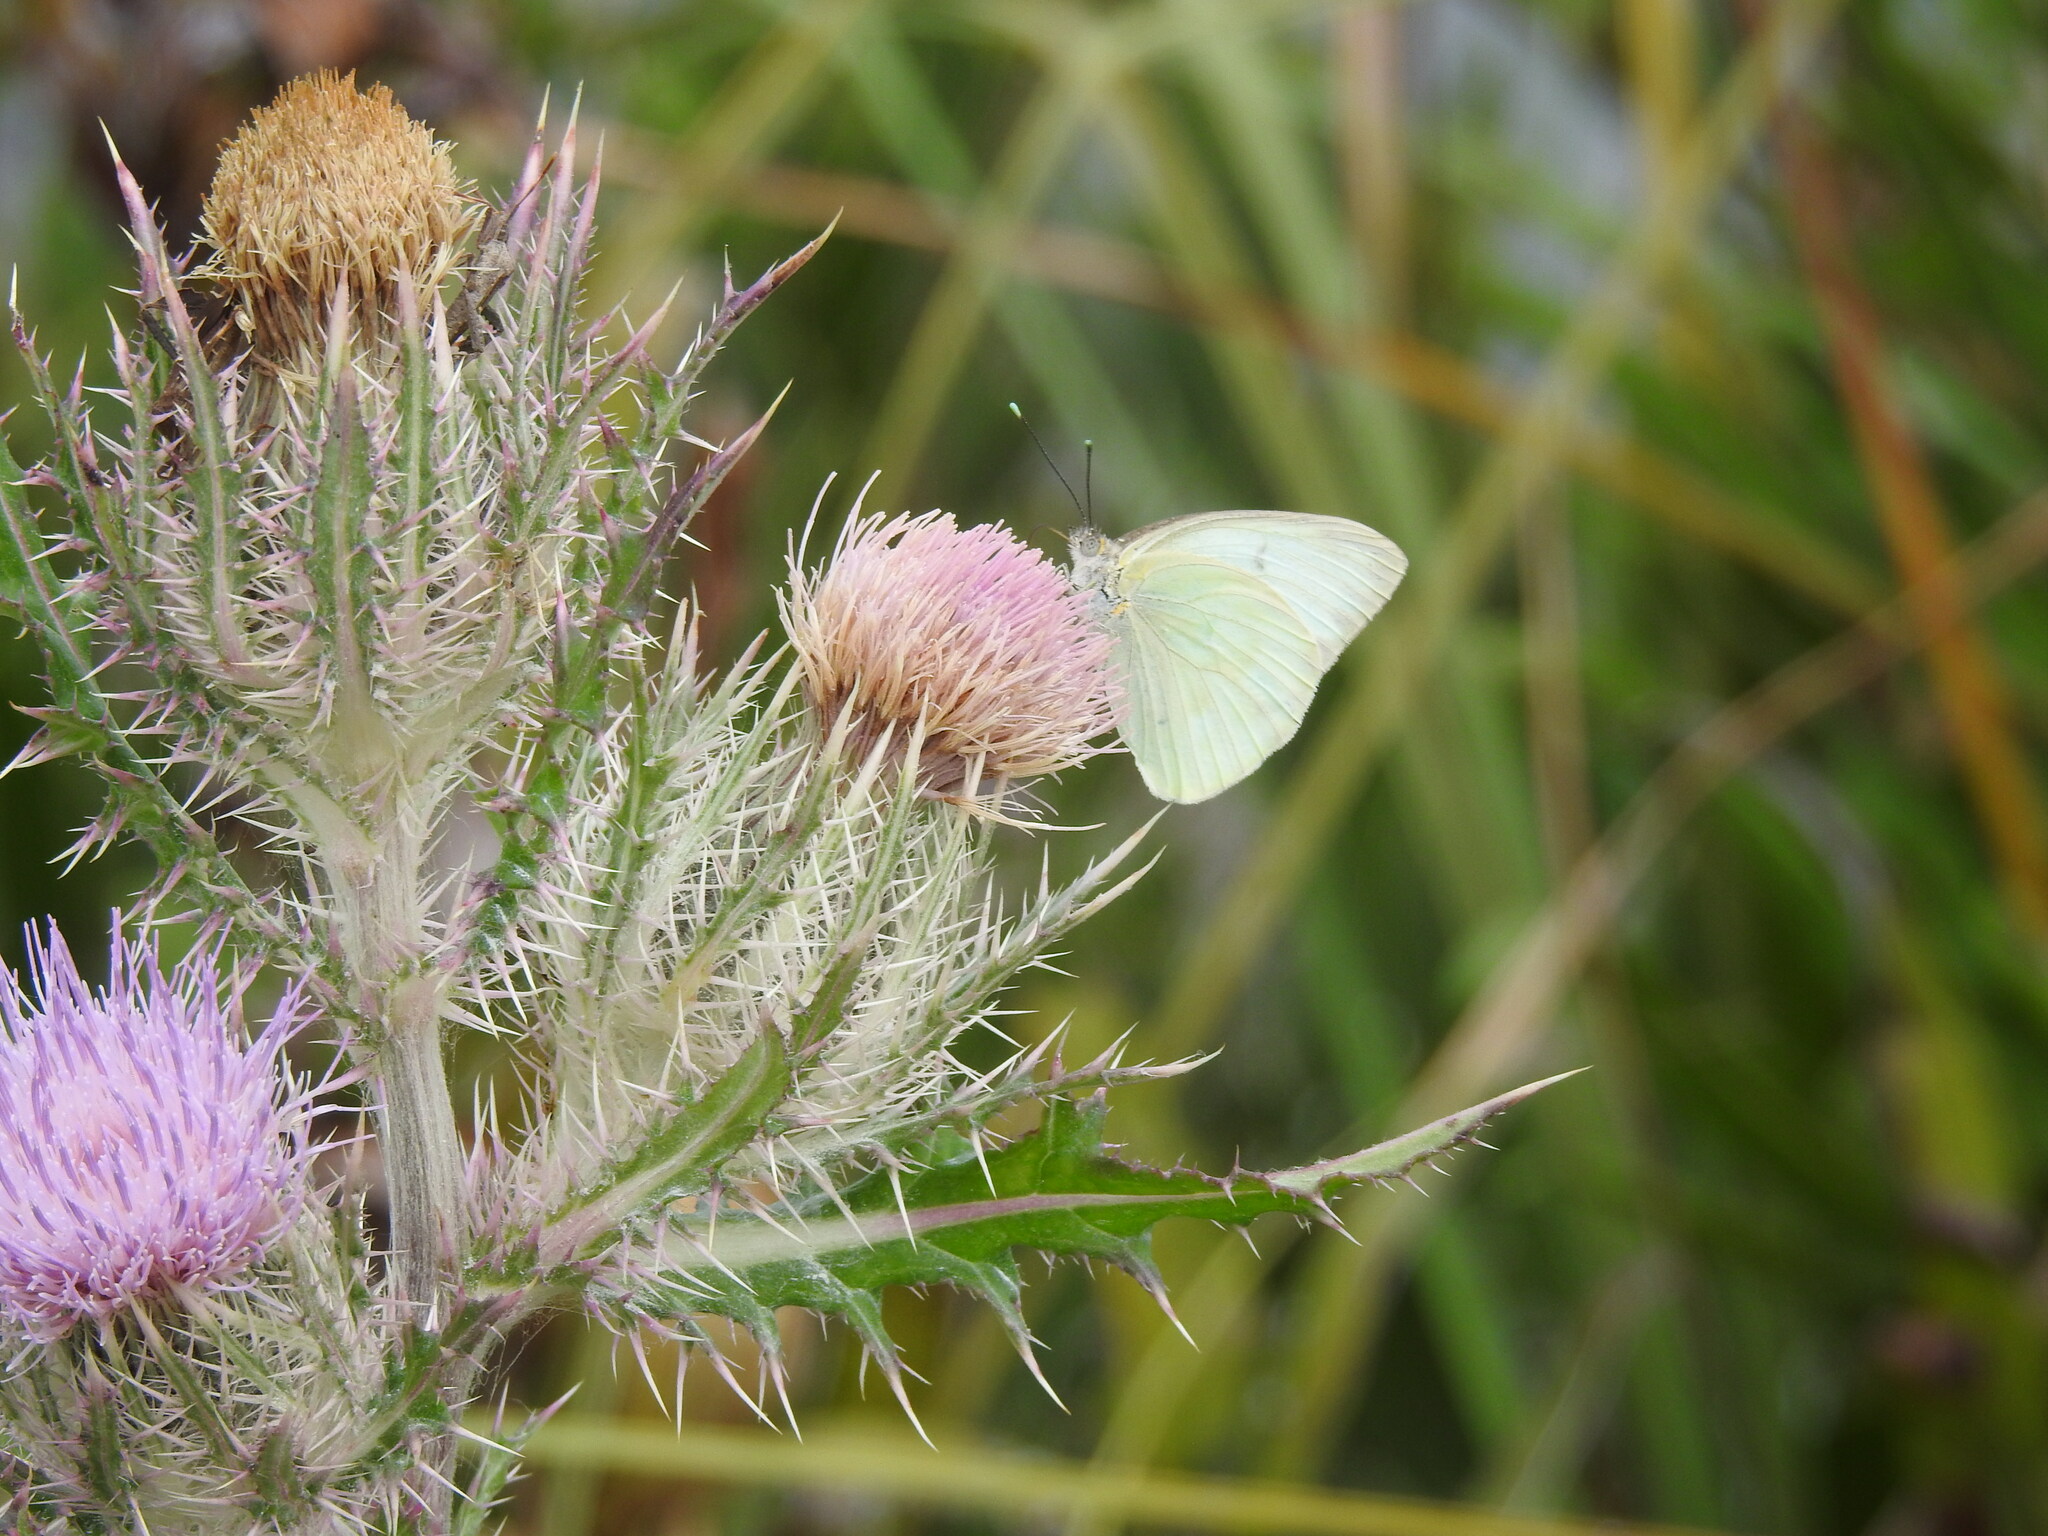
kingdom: Animalia
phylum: Arthropoda
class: Insecta
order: Lepidoptera
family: Pieridae
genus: Ascia
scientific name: Ascia monuste
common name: Great southern white
